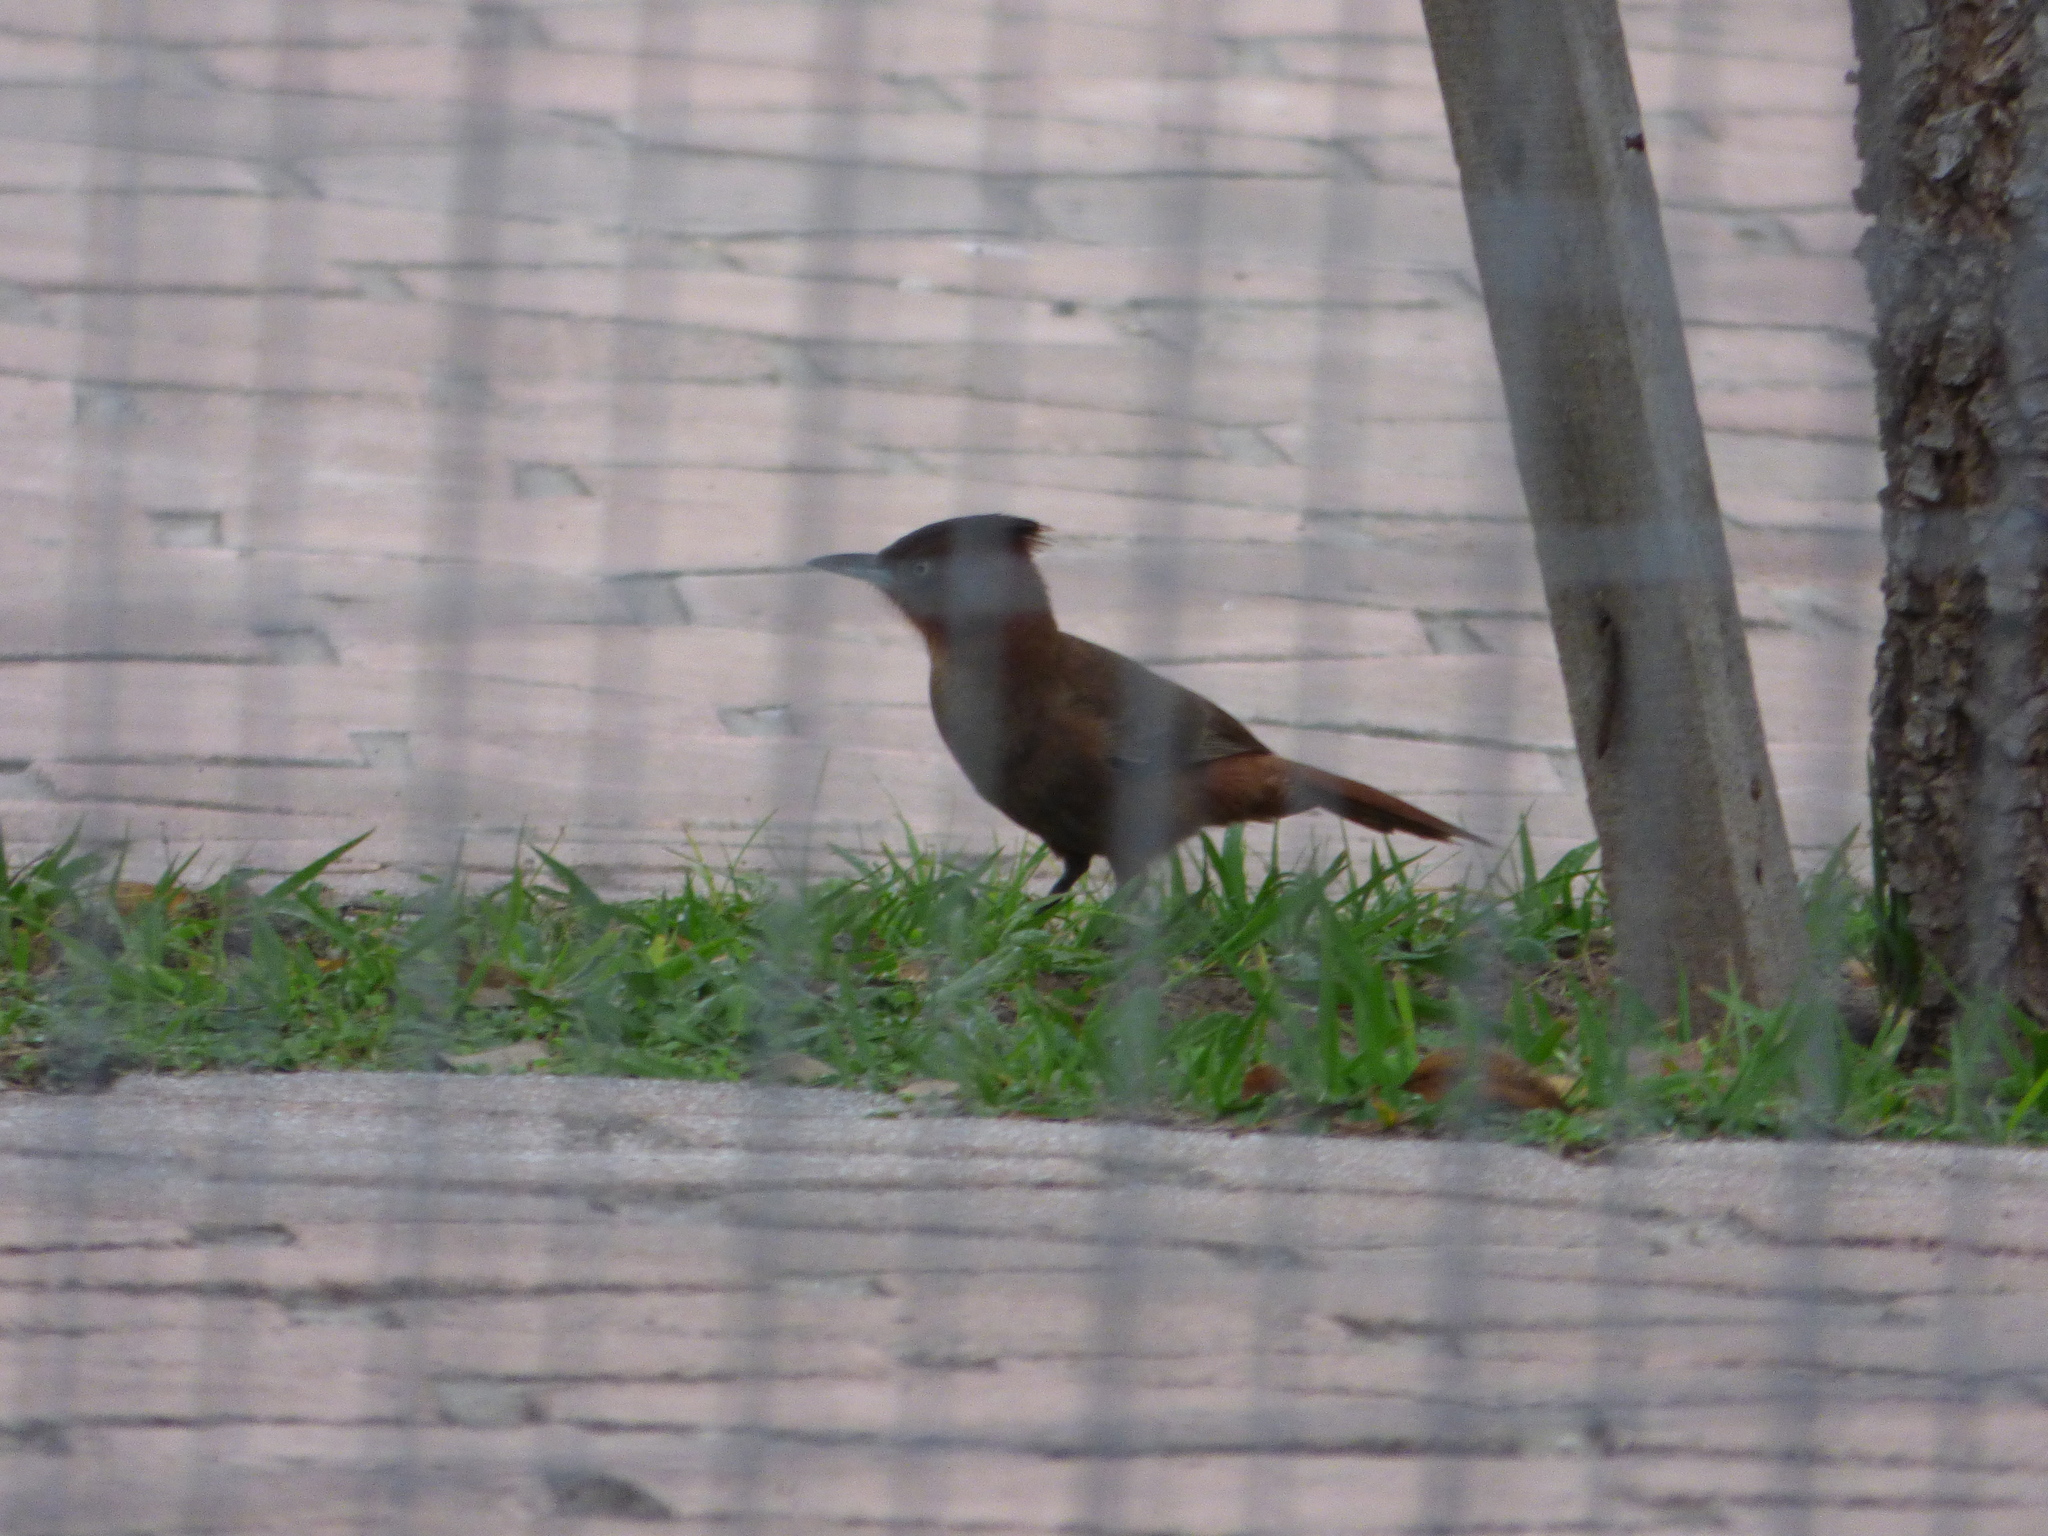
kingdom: Animalia
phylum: Chordata
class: Aves
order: Passeriformes
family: Furnariidae
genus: Pseudoseisura
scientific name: Pseudoseisura lophotes
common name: Brown cacholote
